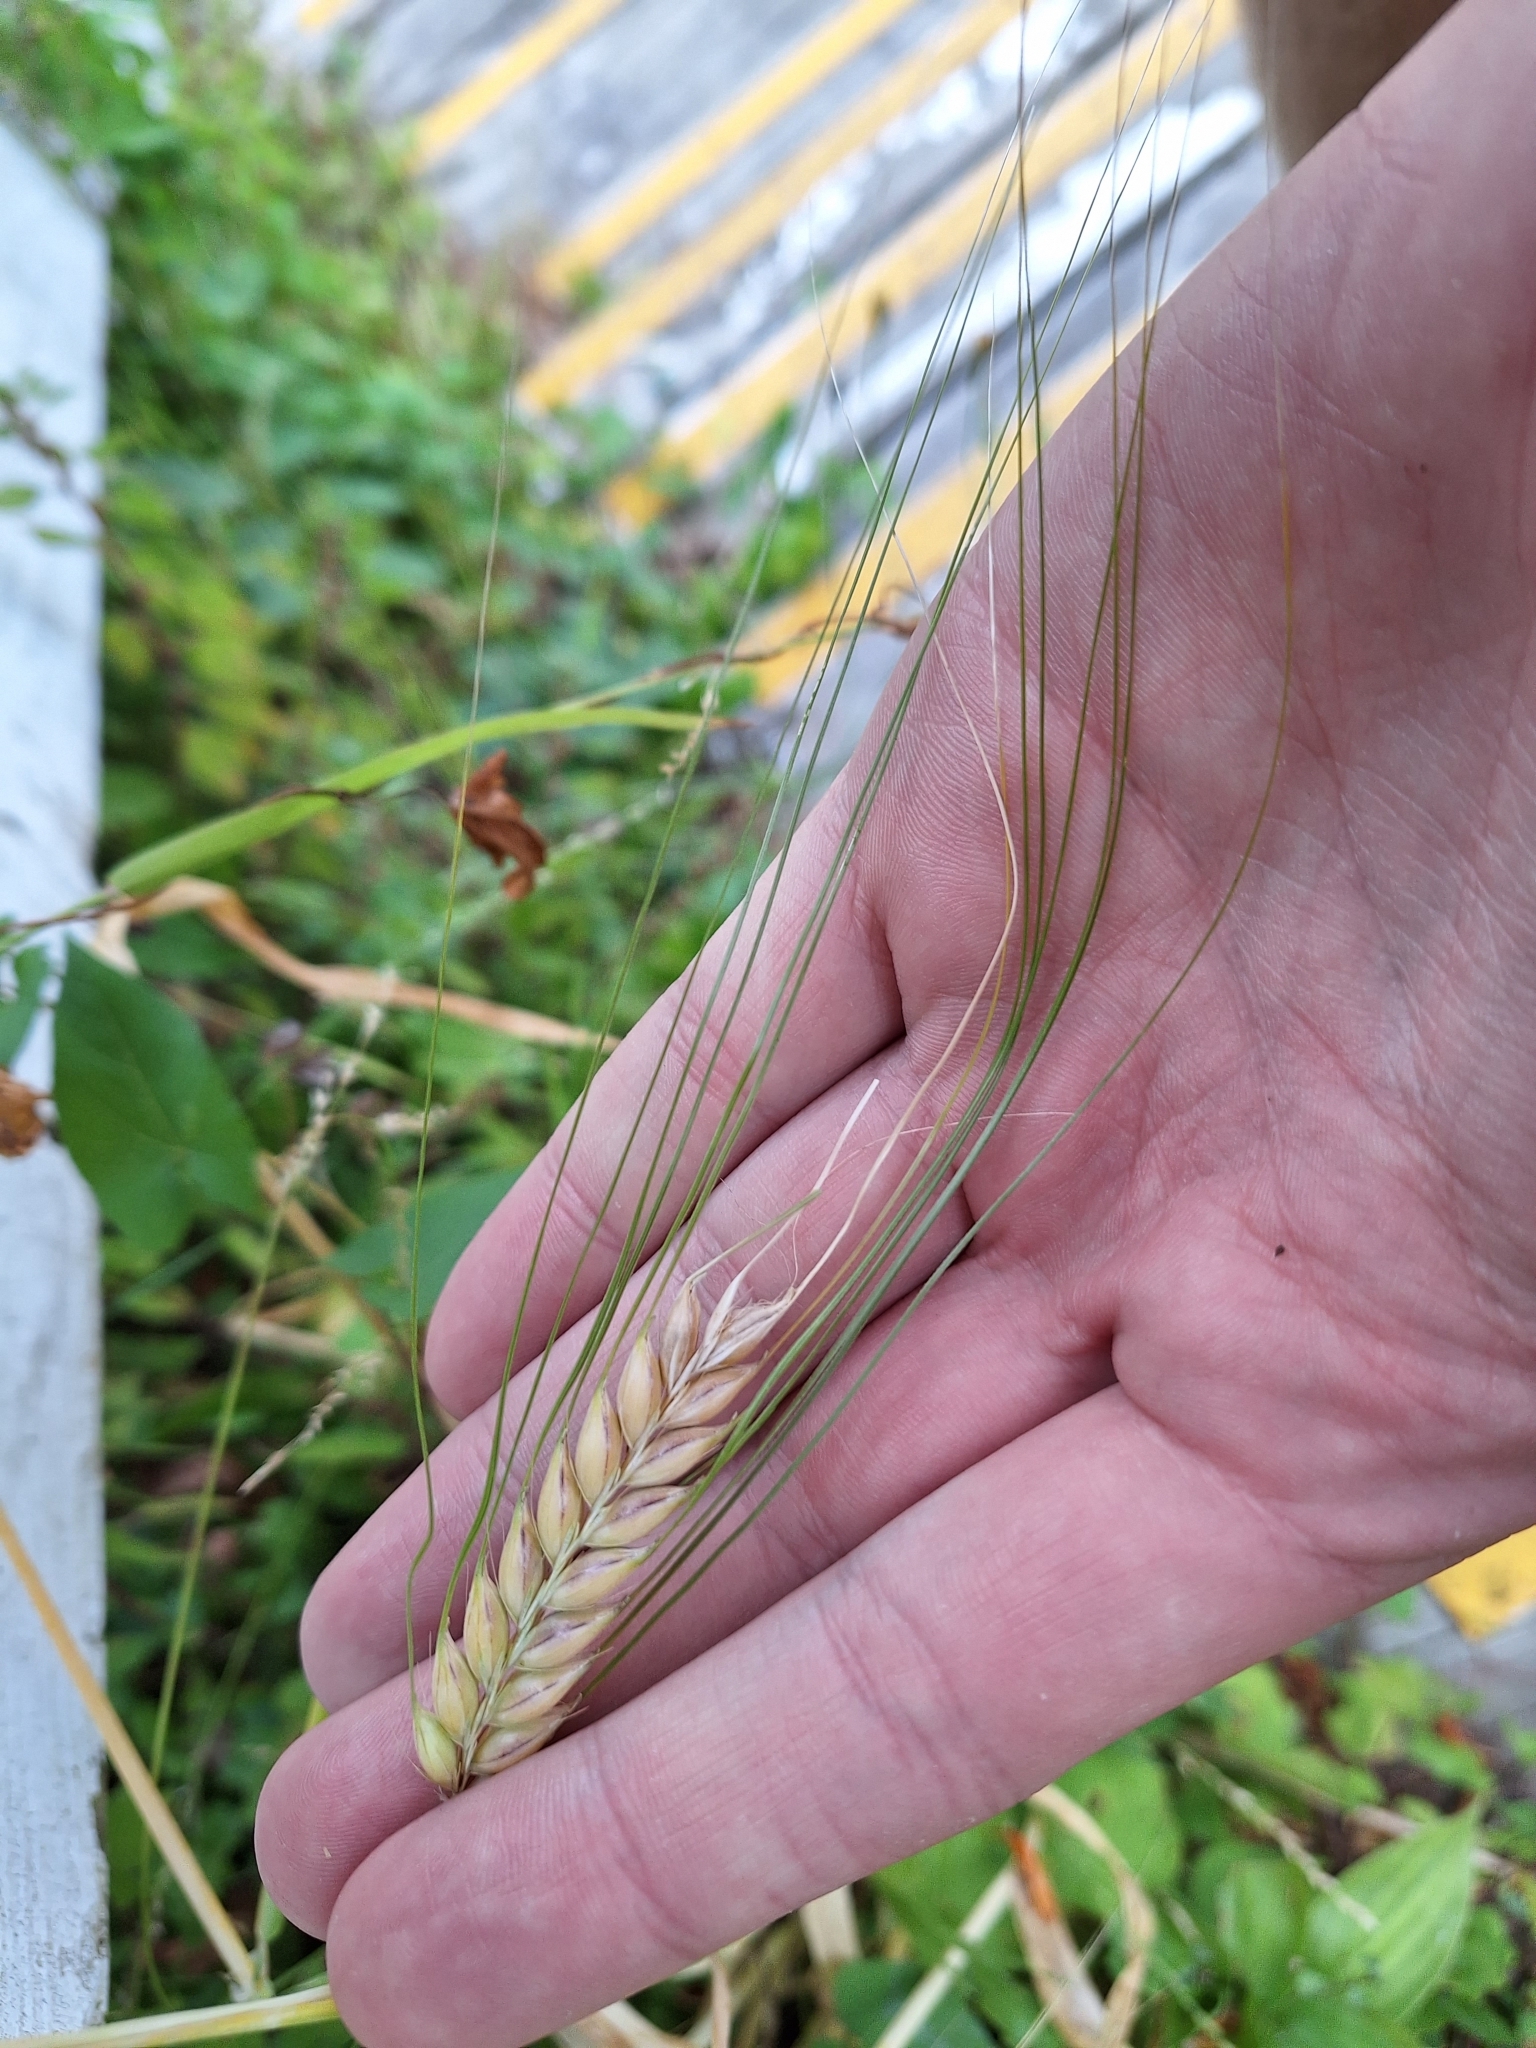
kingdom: Plantae
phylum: Tracheophyta
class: Liliopsida
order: Poales
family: Poaceae
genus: Hordeum
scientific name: Hordeum vulgare
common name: Common barley
